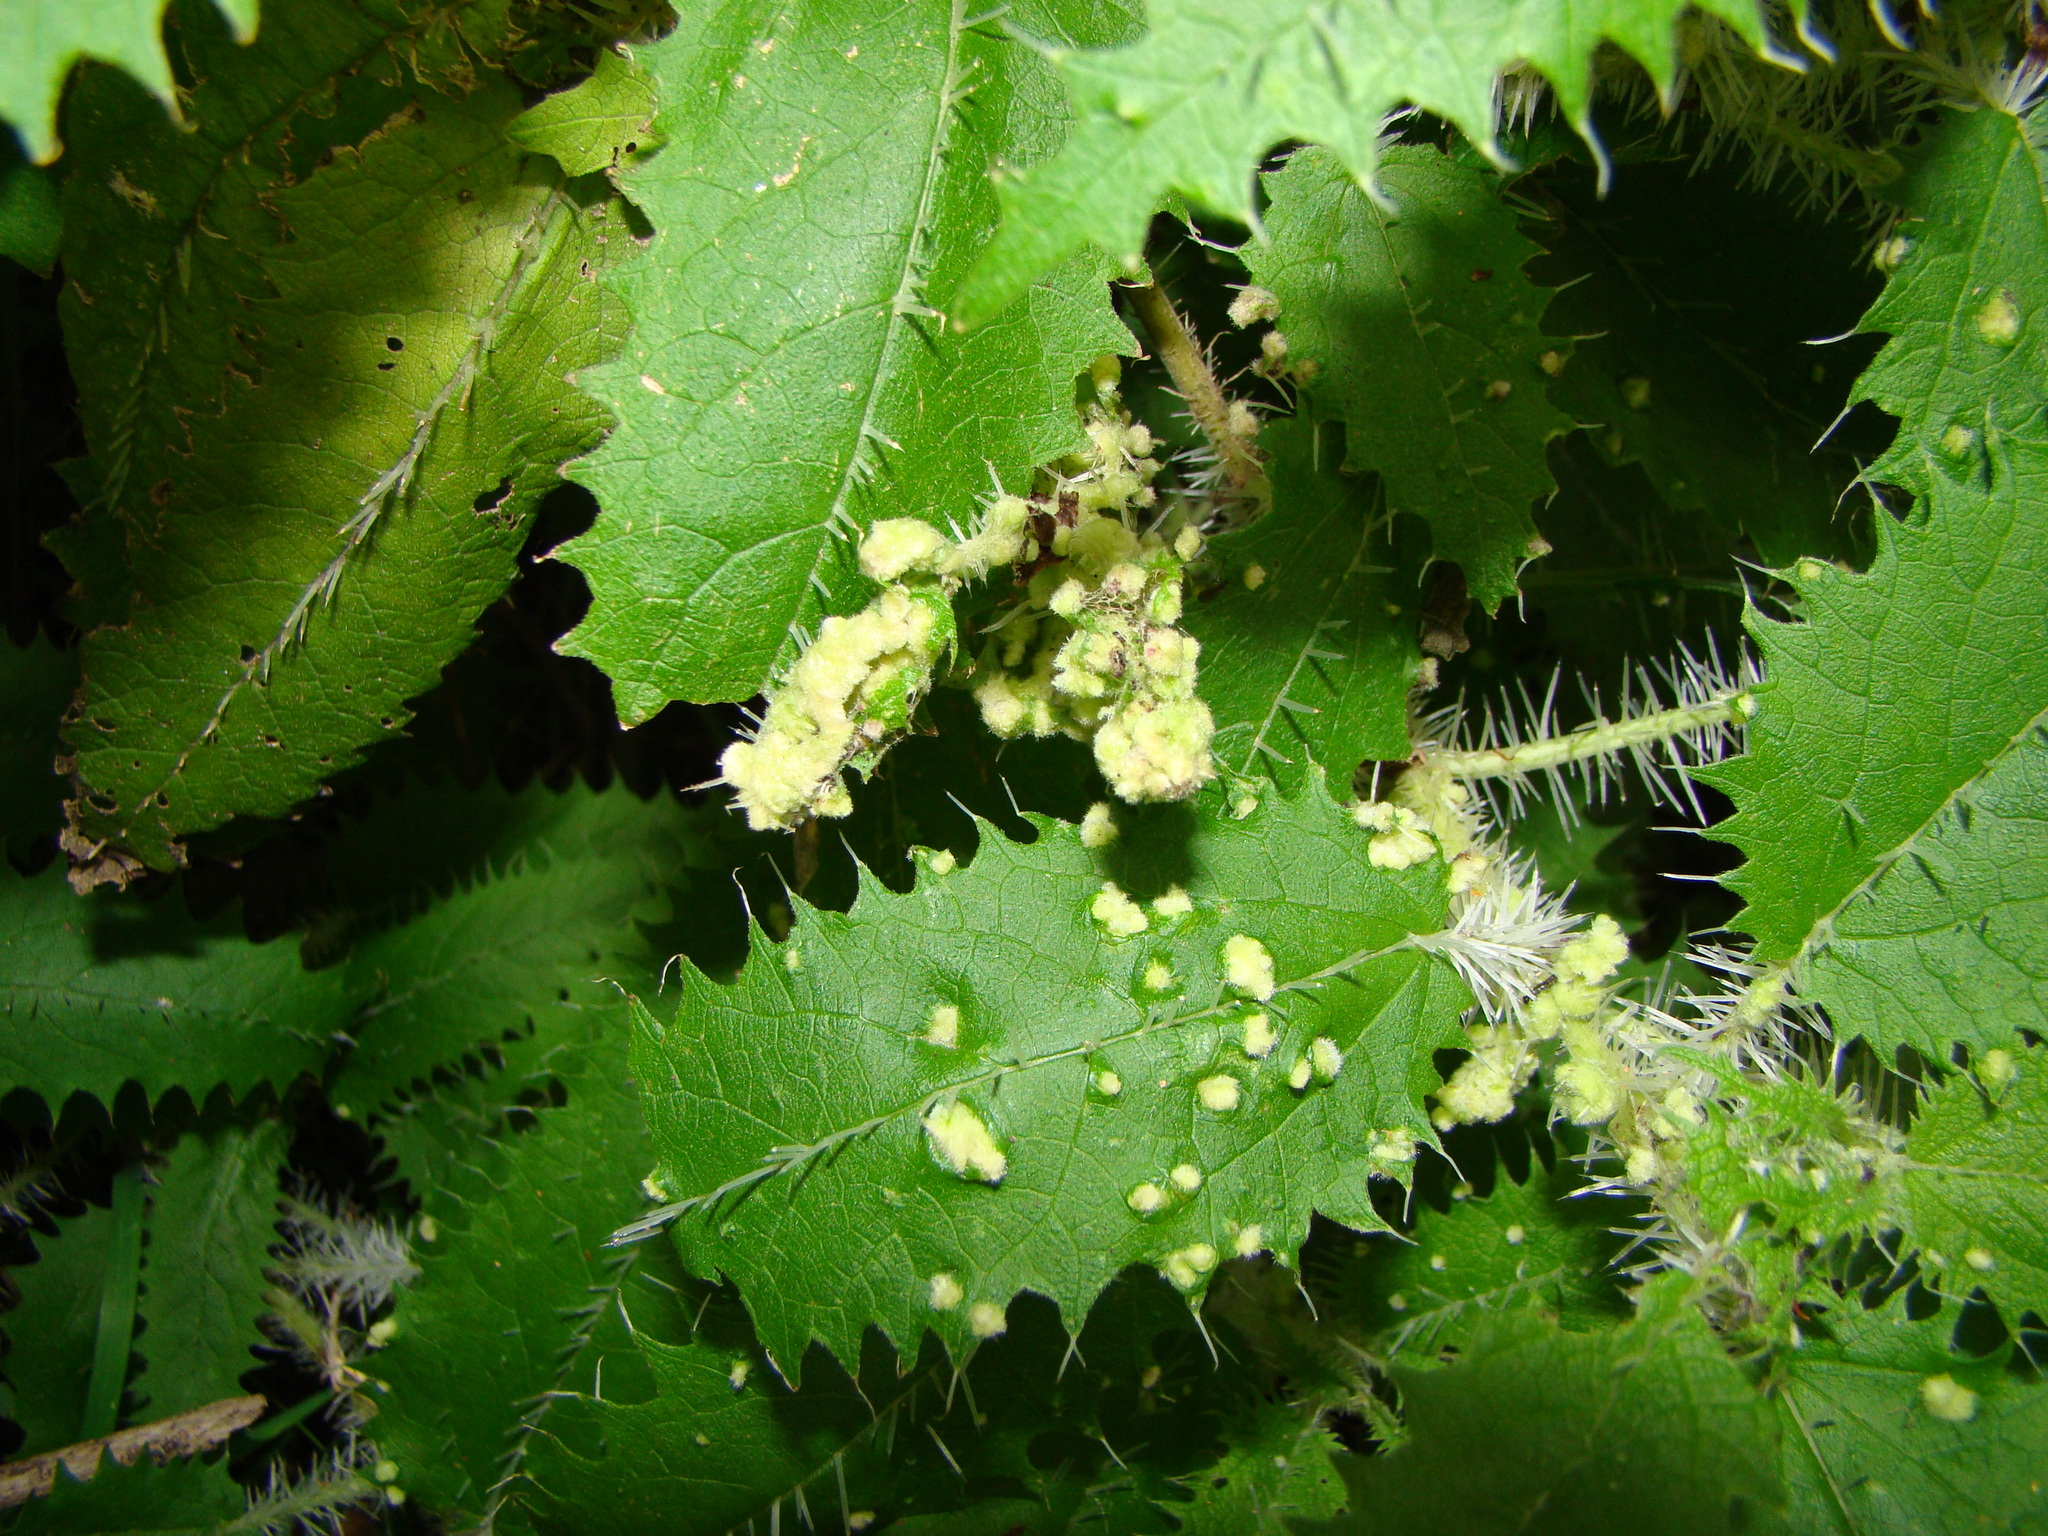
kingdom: Animalia
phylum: Arthropoda
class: Arachnida
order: Trombidiformes
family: Eriophyidae
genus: Vittacus
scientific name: Vittacus
